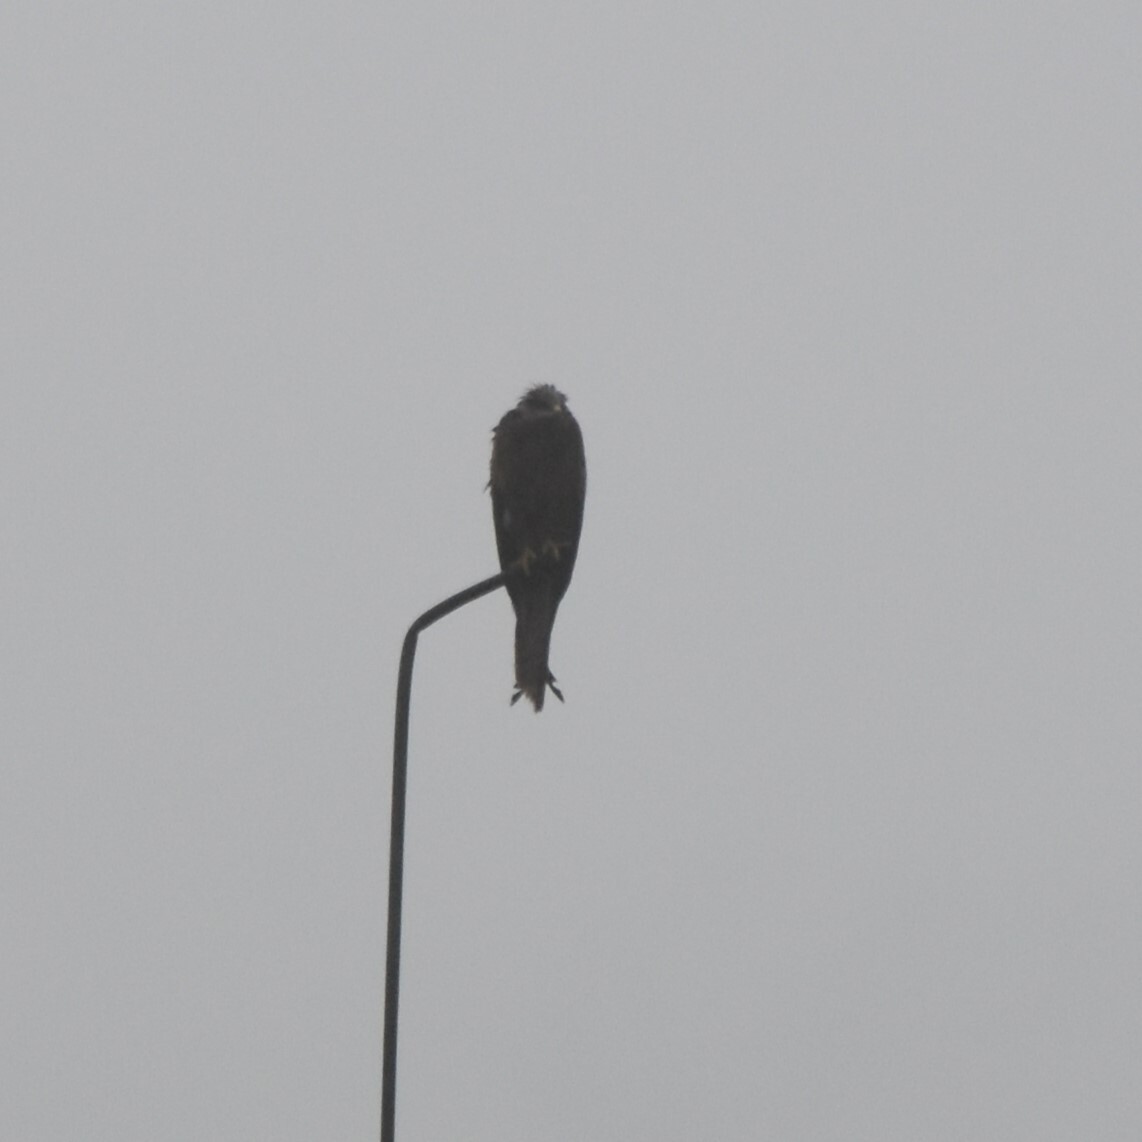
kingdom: Animalia
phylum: Chordata
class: Aves
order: Accipitriformes
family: Accipitridae
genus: Milvus
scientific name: Milvus migrans
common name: Black kite
